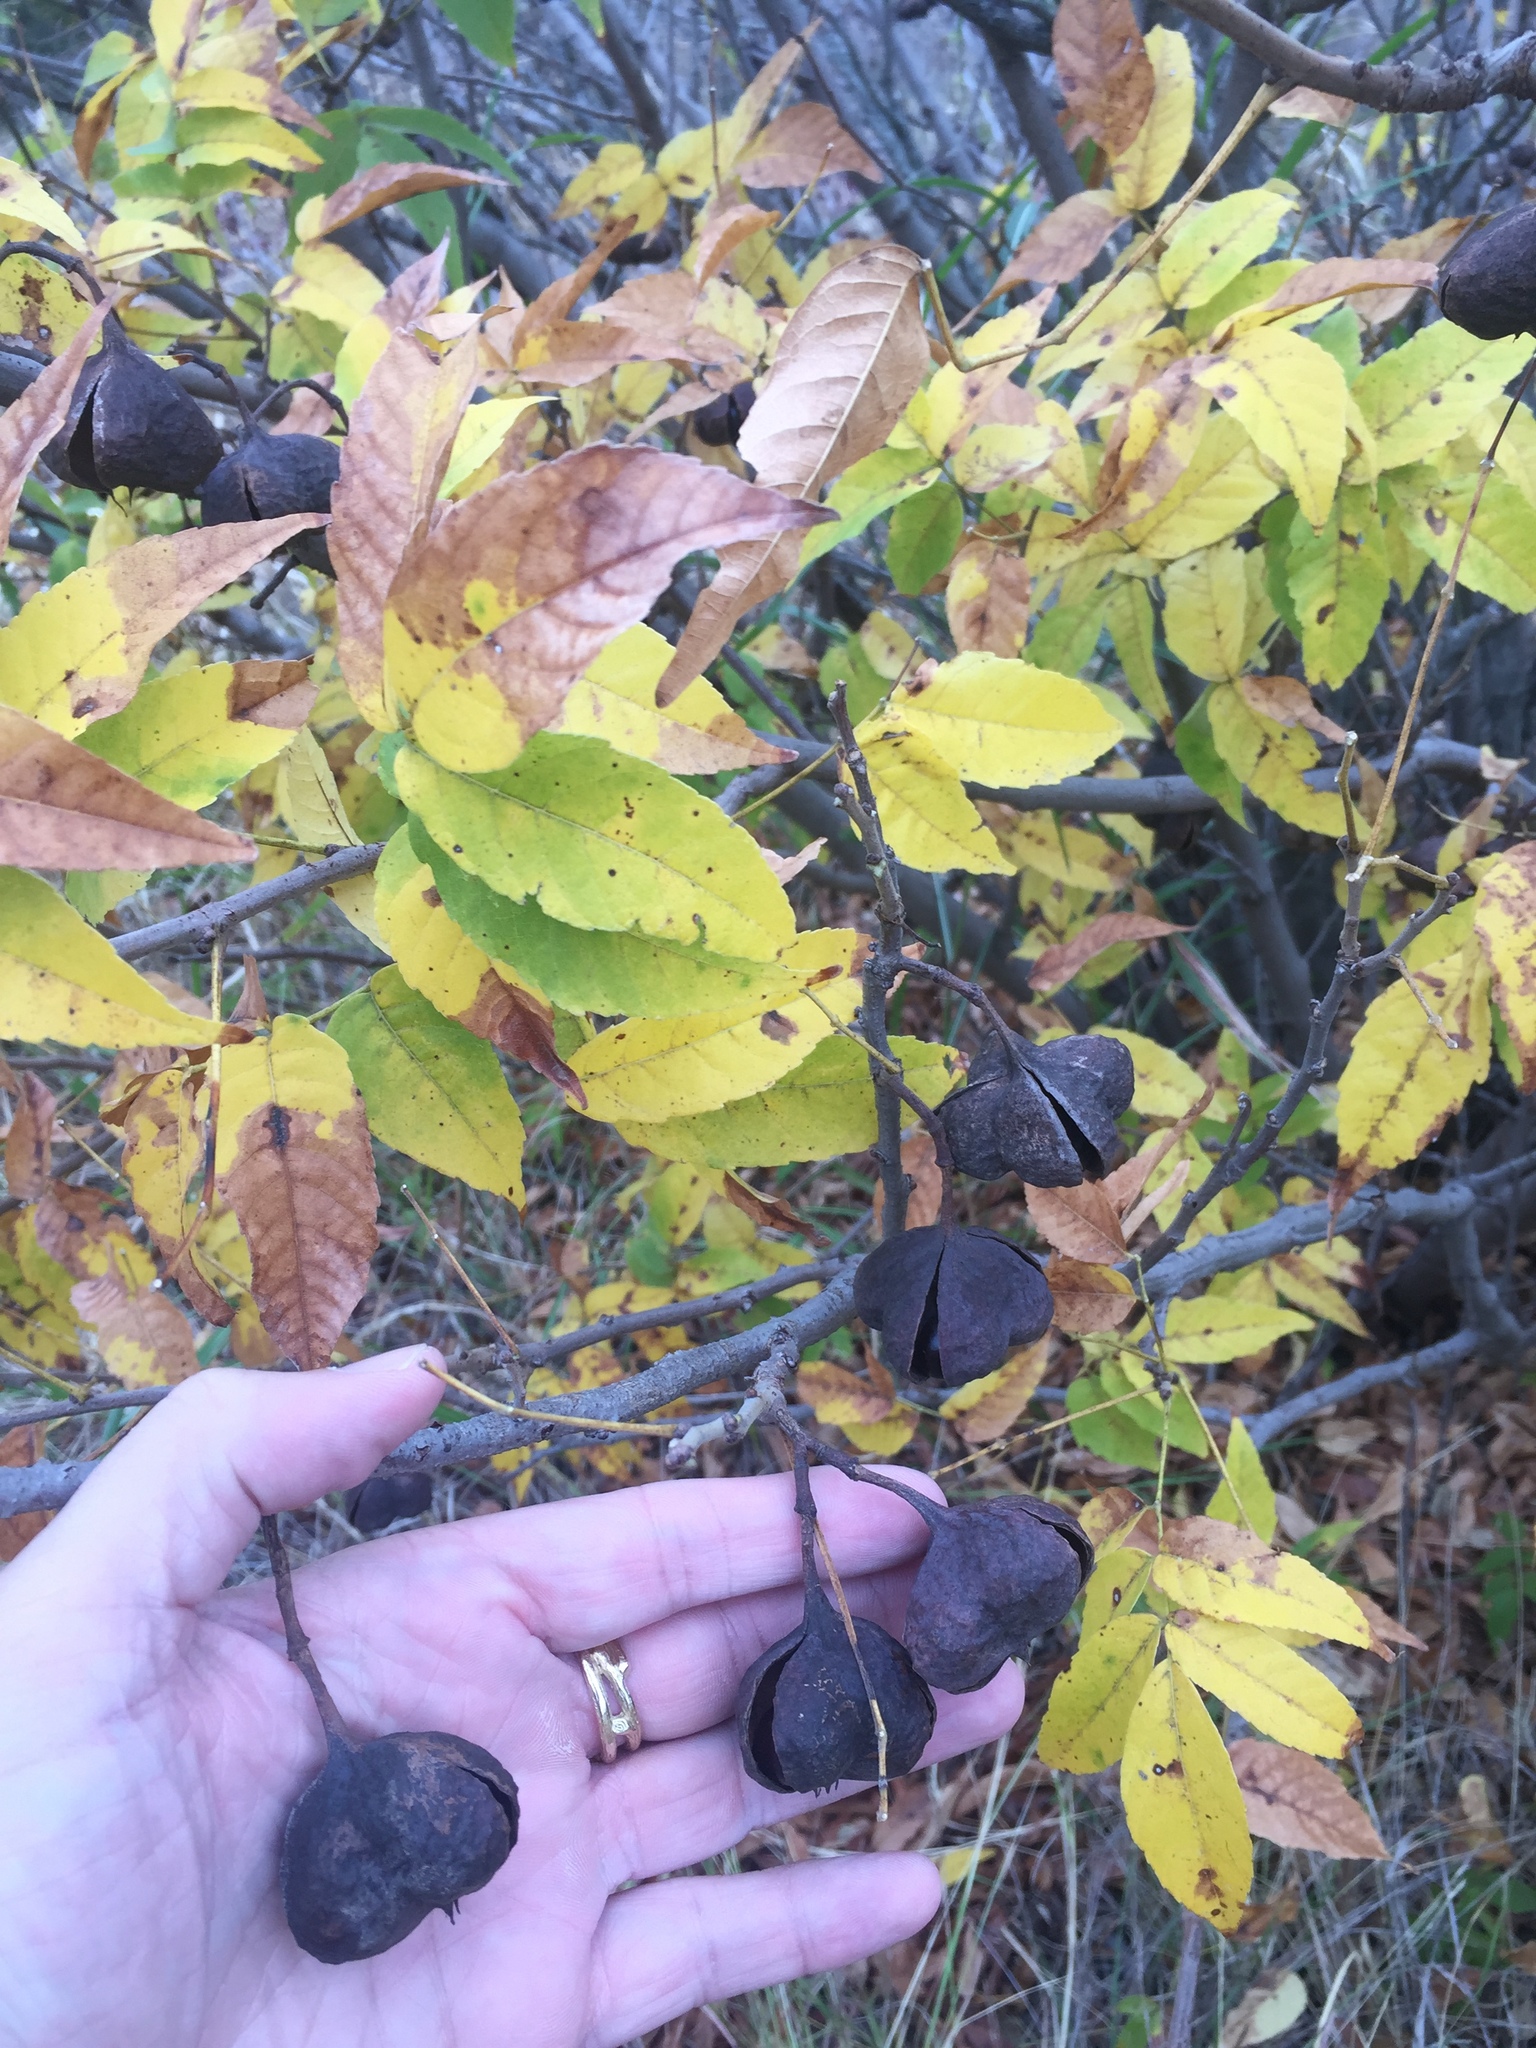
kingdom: Plantae
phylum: Tracheophyta
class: Magnoliopsida
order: Sapindales
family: Sapindaceae
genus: Ungnadia
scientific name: Ungnadia speciosa
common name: Texas-buckeye
